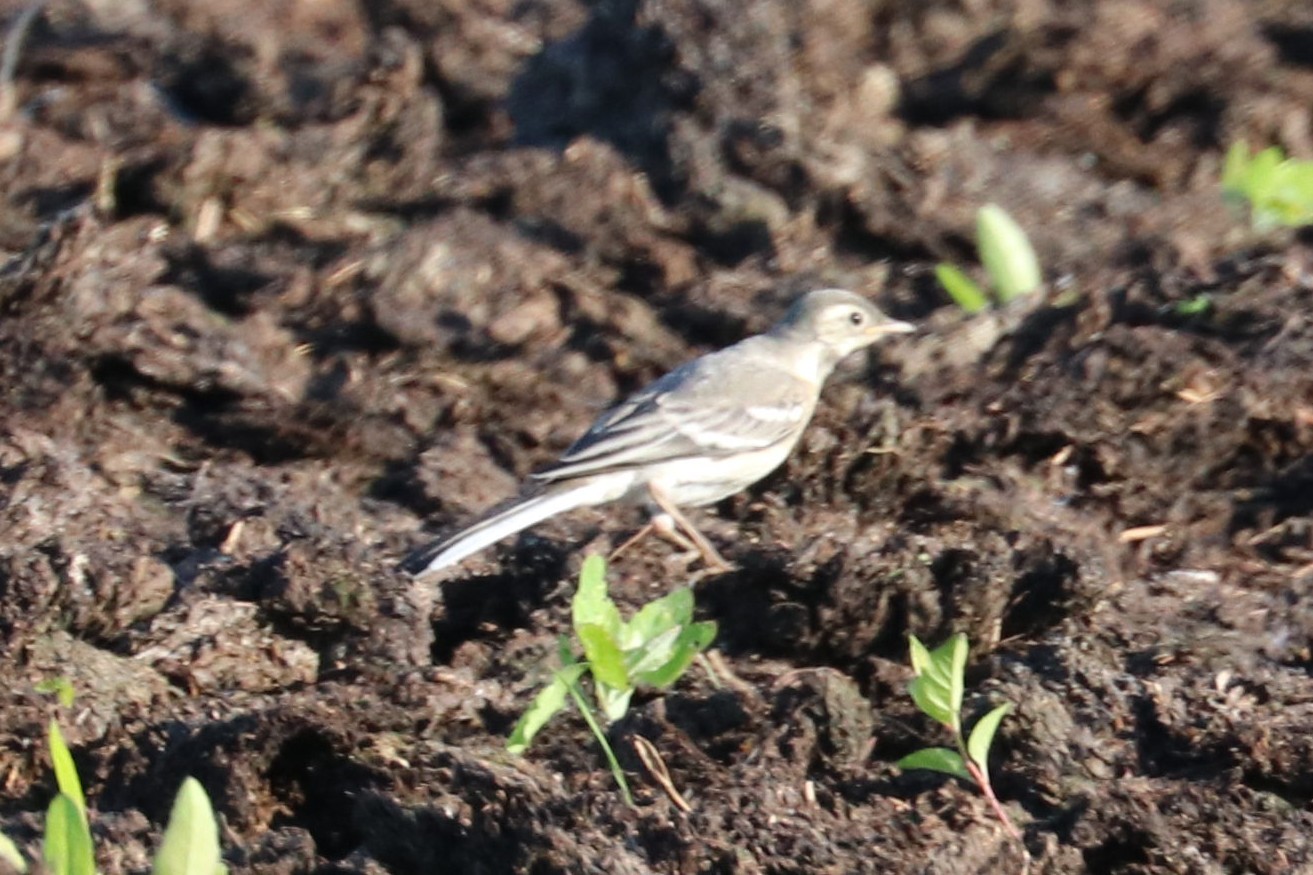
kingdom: Animalia
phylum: Chordata
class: Aves
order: Passeriformes
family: Motacillidae
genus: Motacilla
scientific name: Motacilla alba
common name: White wagtail
